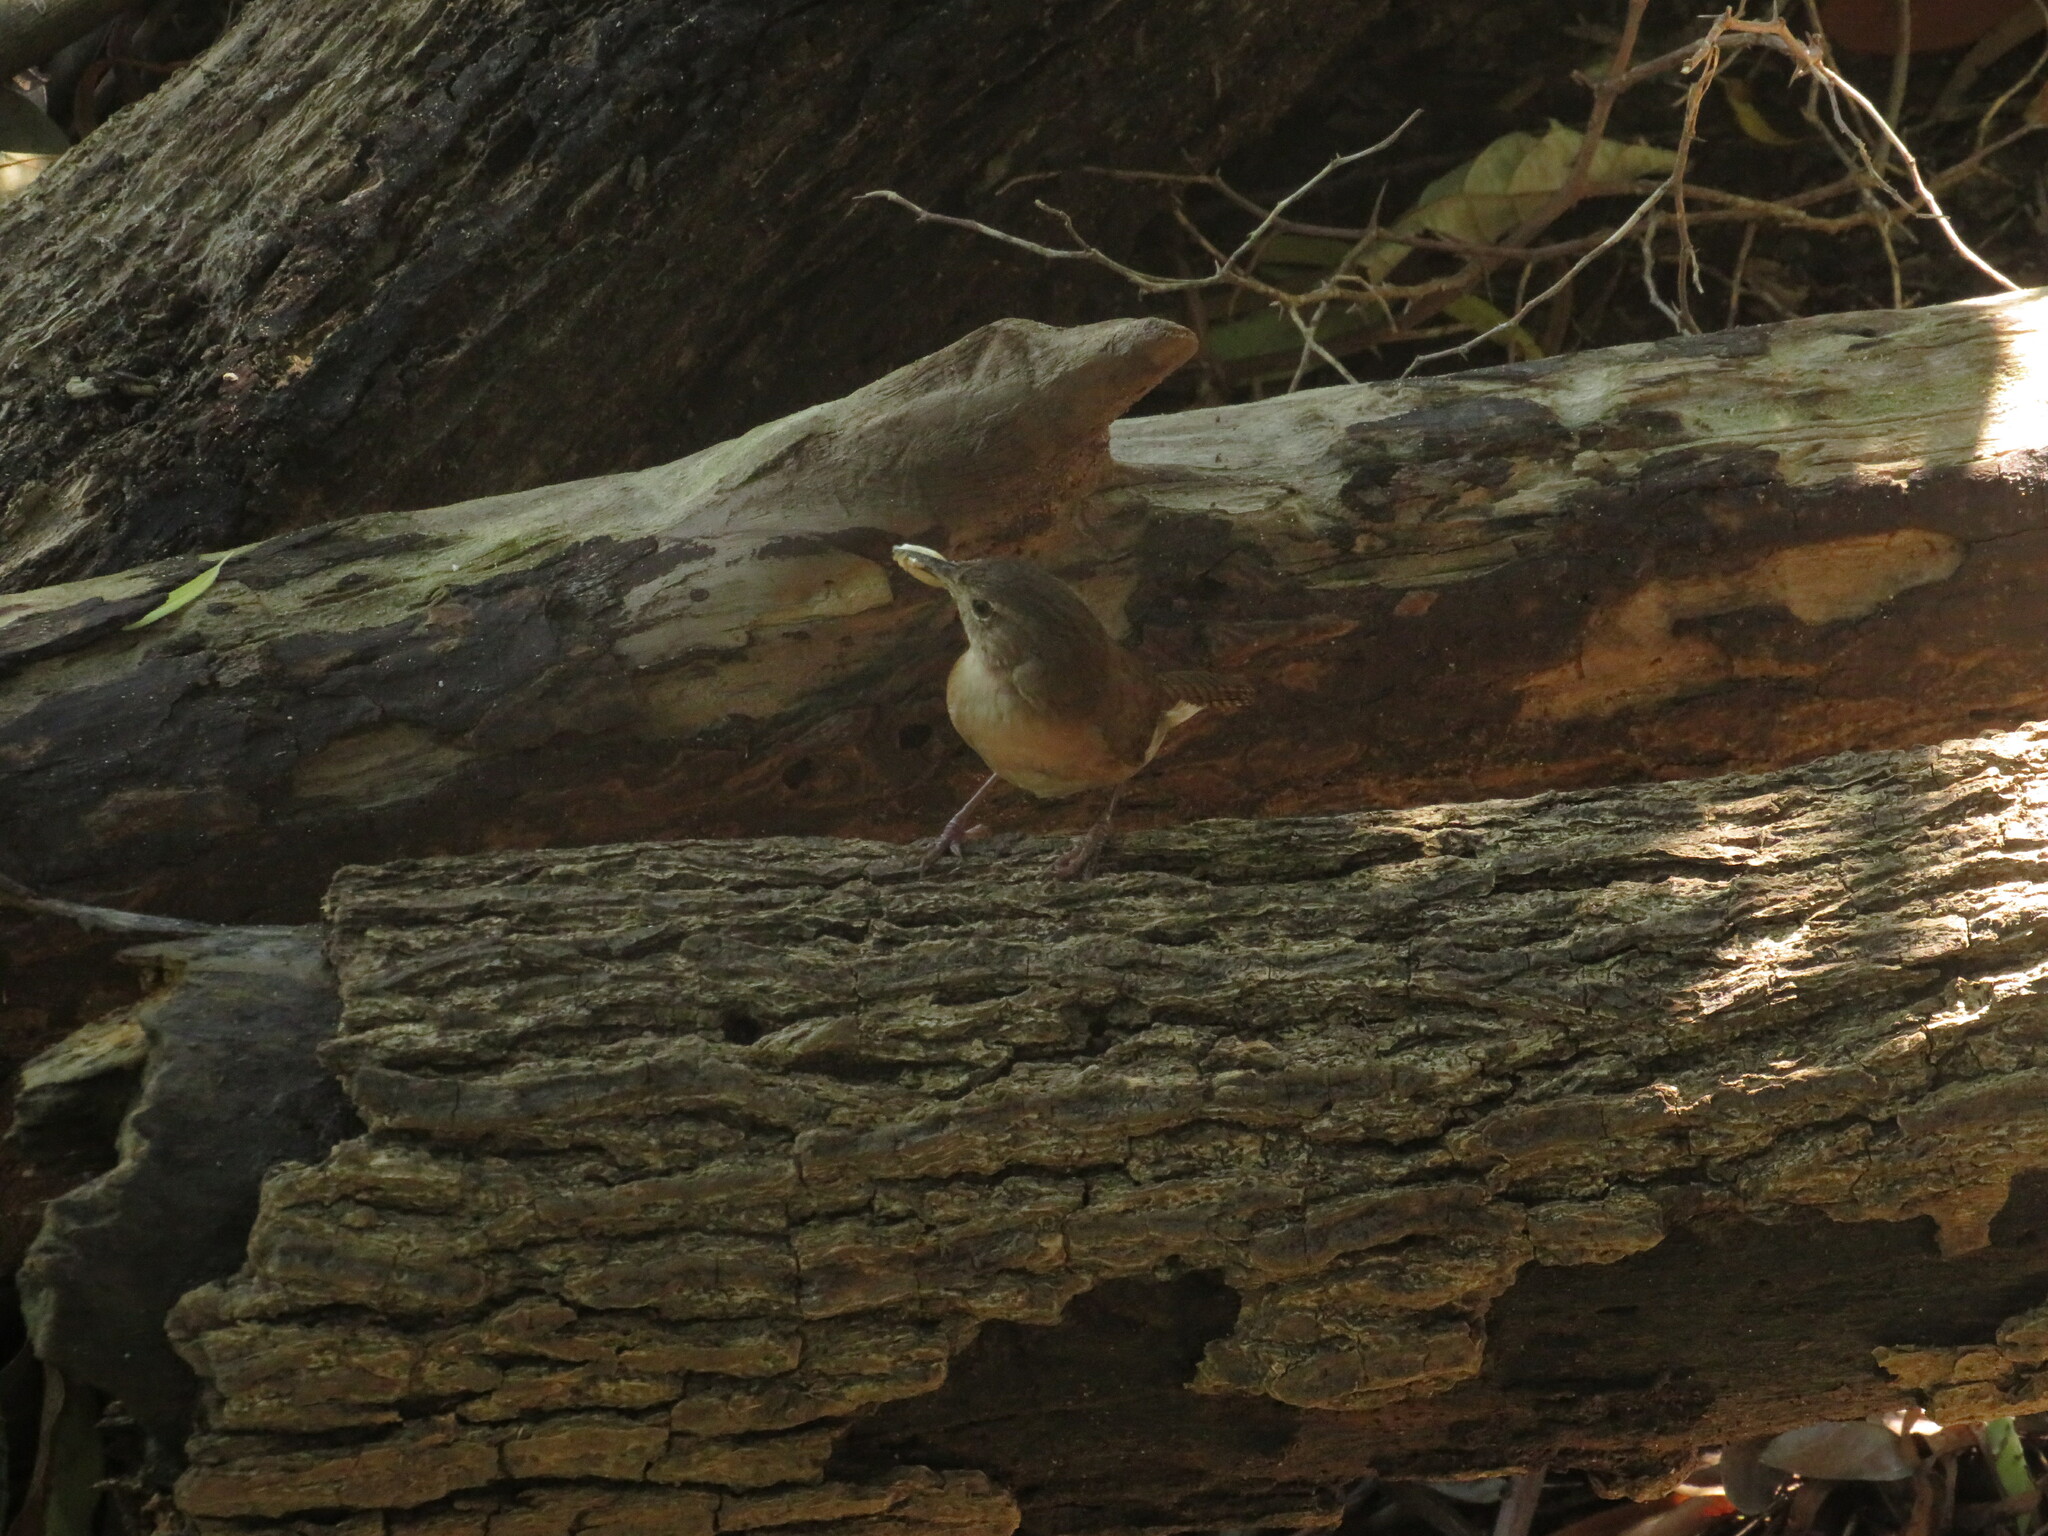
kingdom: Animalia
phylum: Chordata
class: Aves
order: Passeriformes
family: Troglodytidae
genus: Troglodytes
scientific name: Troglodytes aedon
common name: House wren
